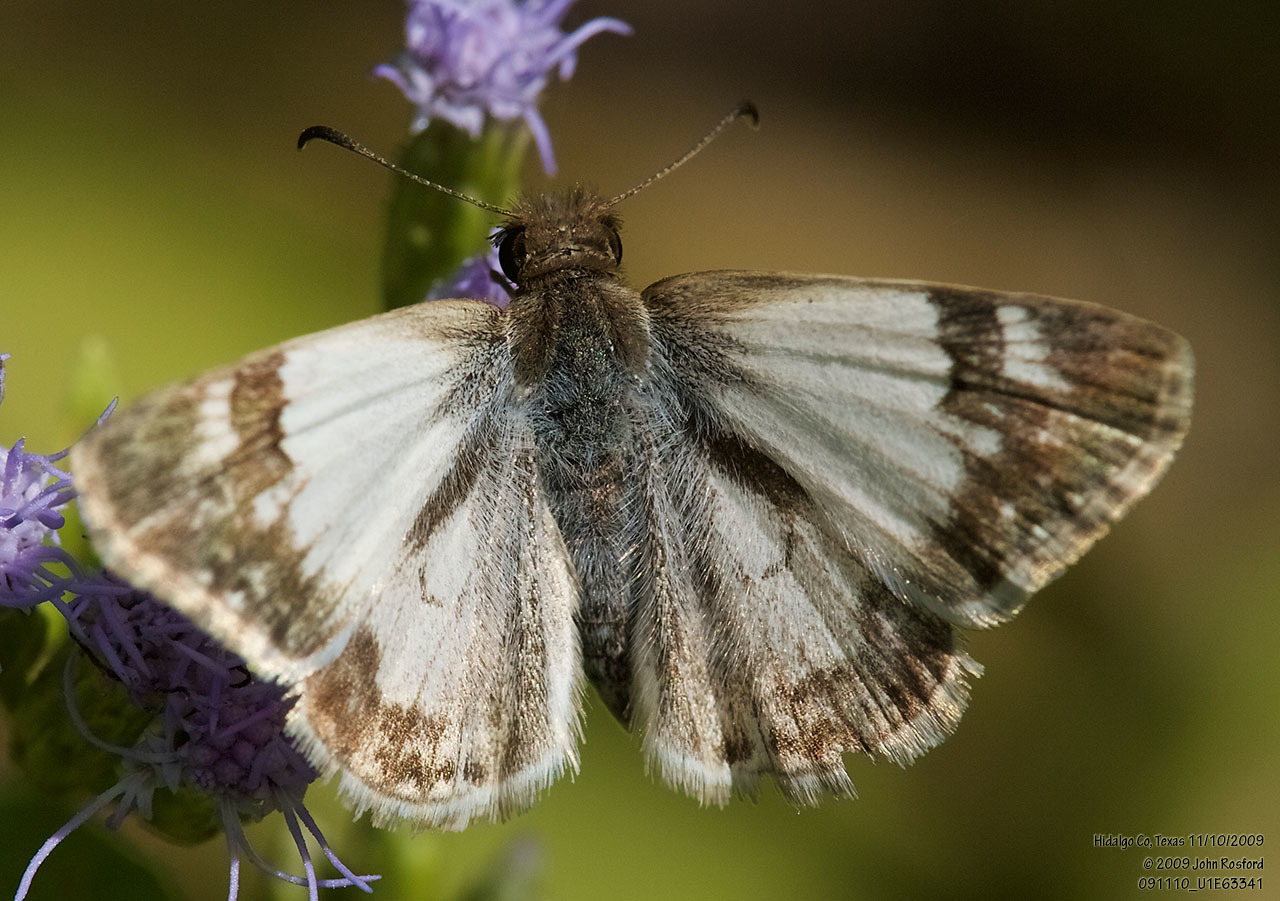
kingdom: Animalia
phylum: Arthropoda
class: Insecta
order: Lepidoptera
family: Hesperiidae
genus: Heliopetes
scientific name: Heliopetes macaira
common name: Turk's-cap white-skipper
